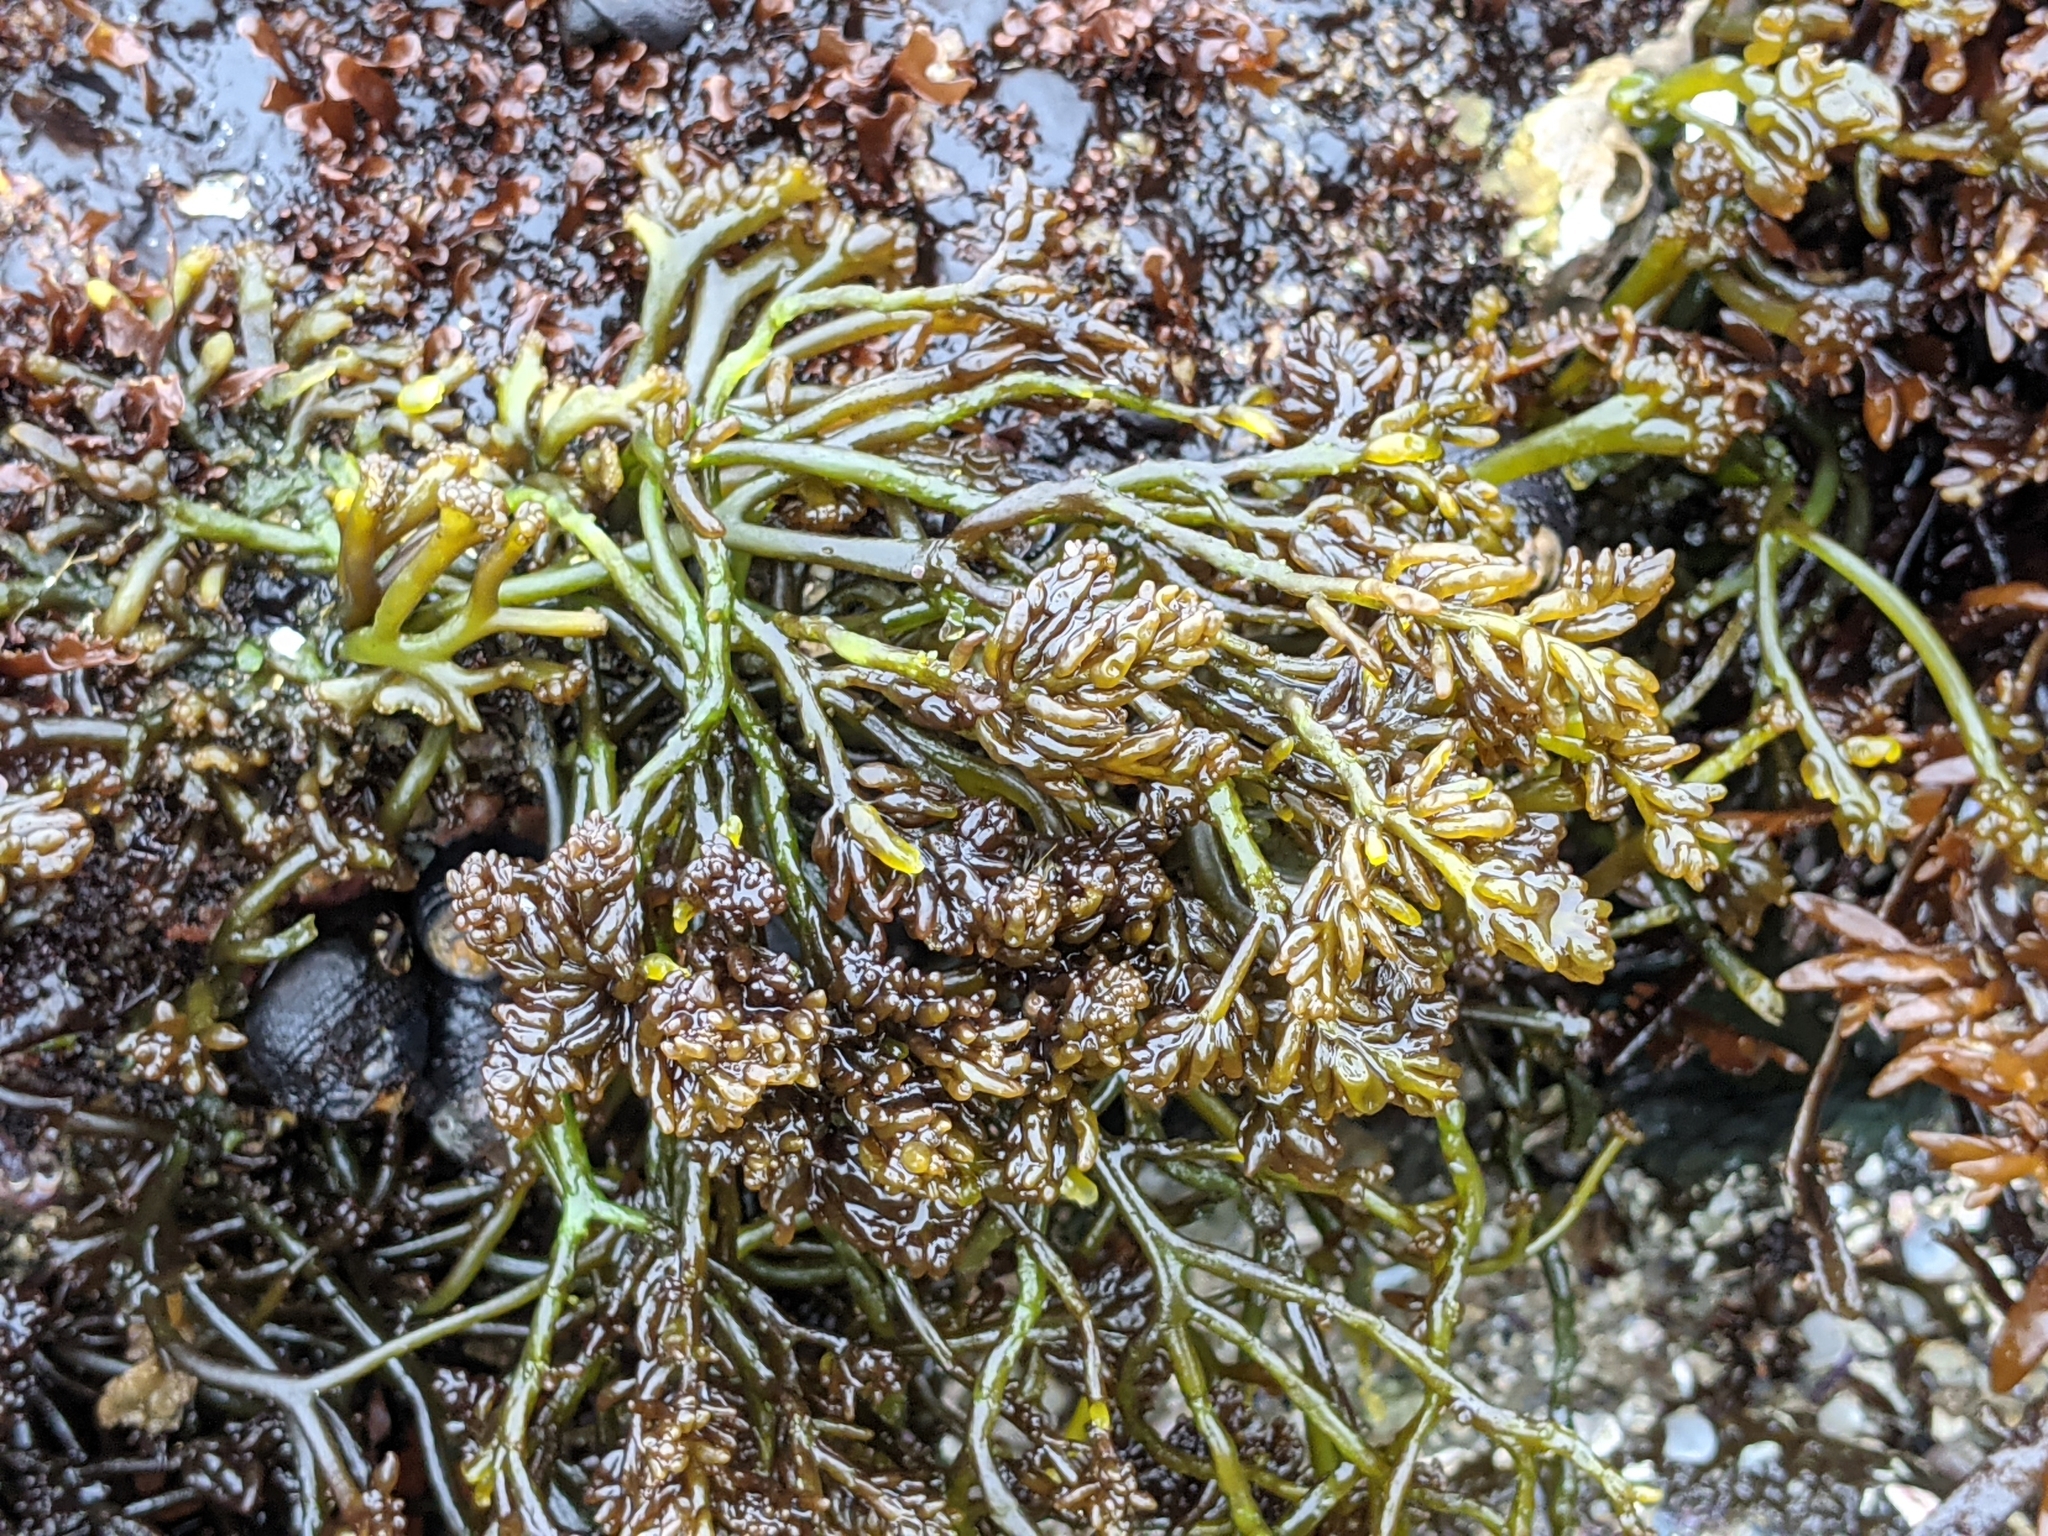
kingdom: Plantae
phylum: Rhodophyta
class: Florideophyceae
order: Rhodymeniales
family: Champiaceae
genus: Neogastroclonium
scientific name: Neogastroclonium subarticulatum
